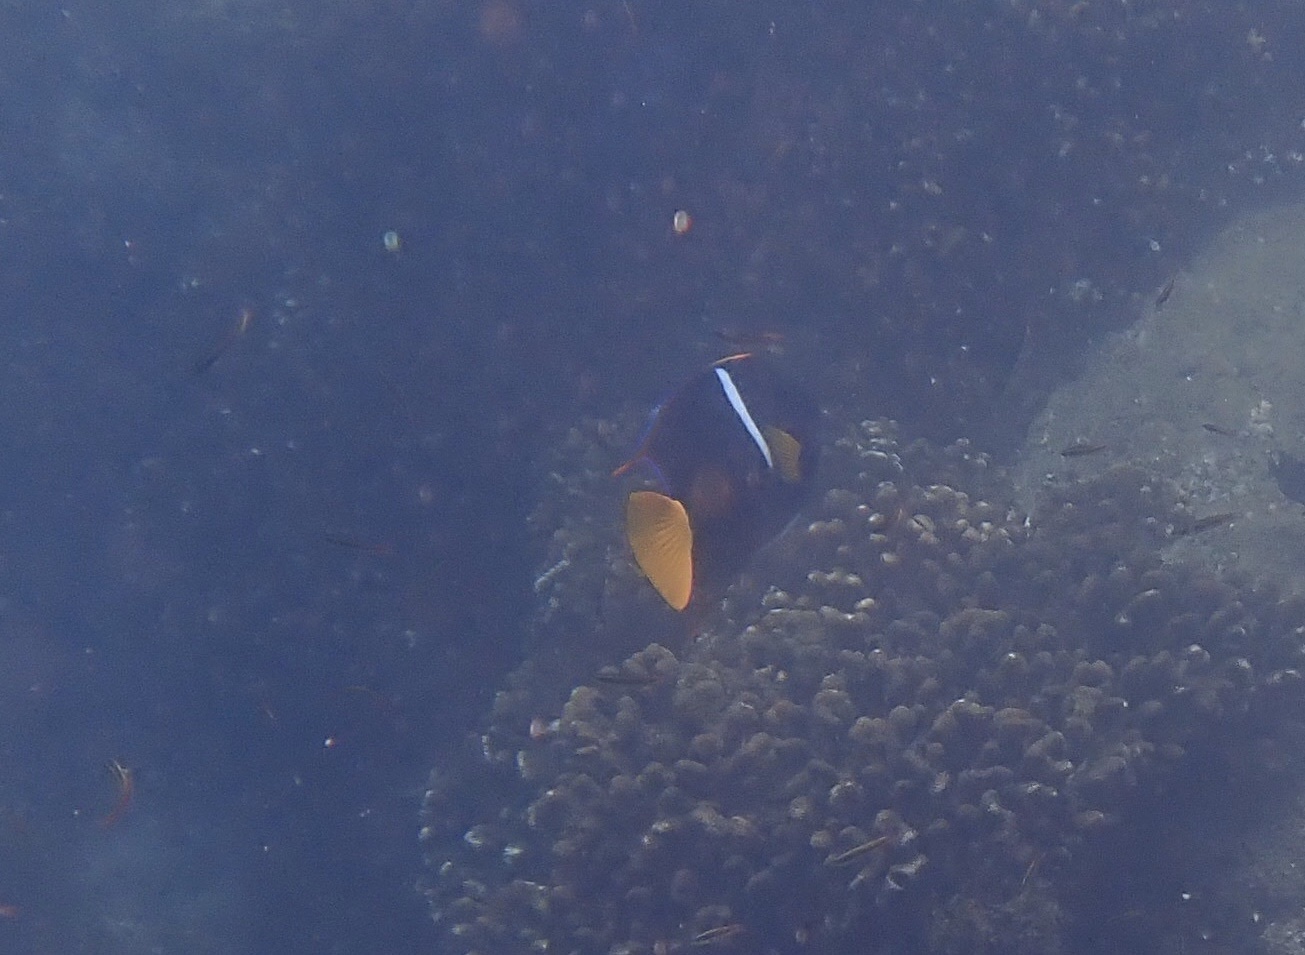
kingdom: Animalia
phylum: Chordata
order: Perciformes
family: Pomacanthidae
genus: Holacanthus
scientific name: Holacanthus passer
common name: King angelfish
